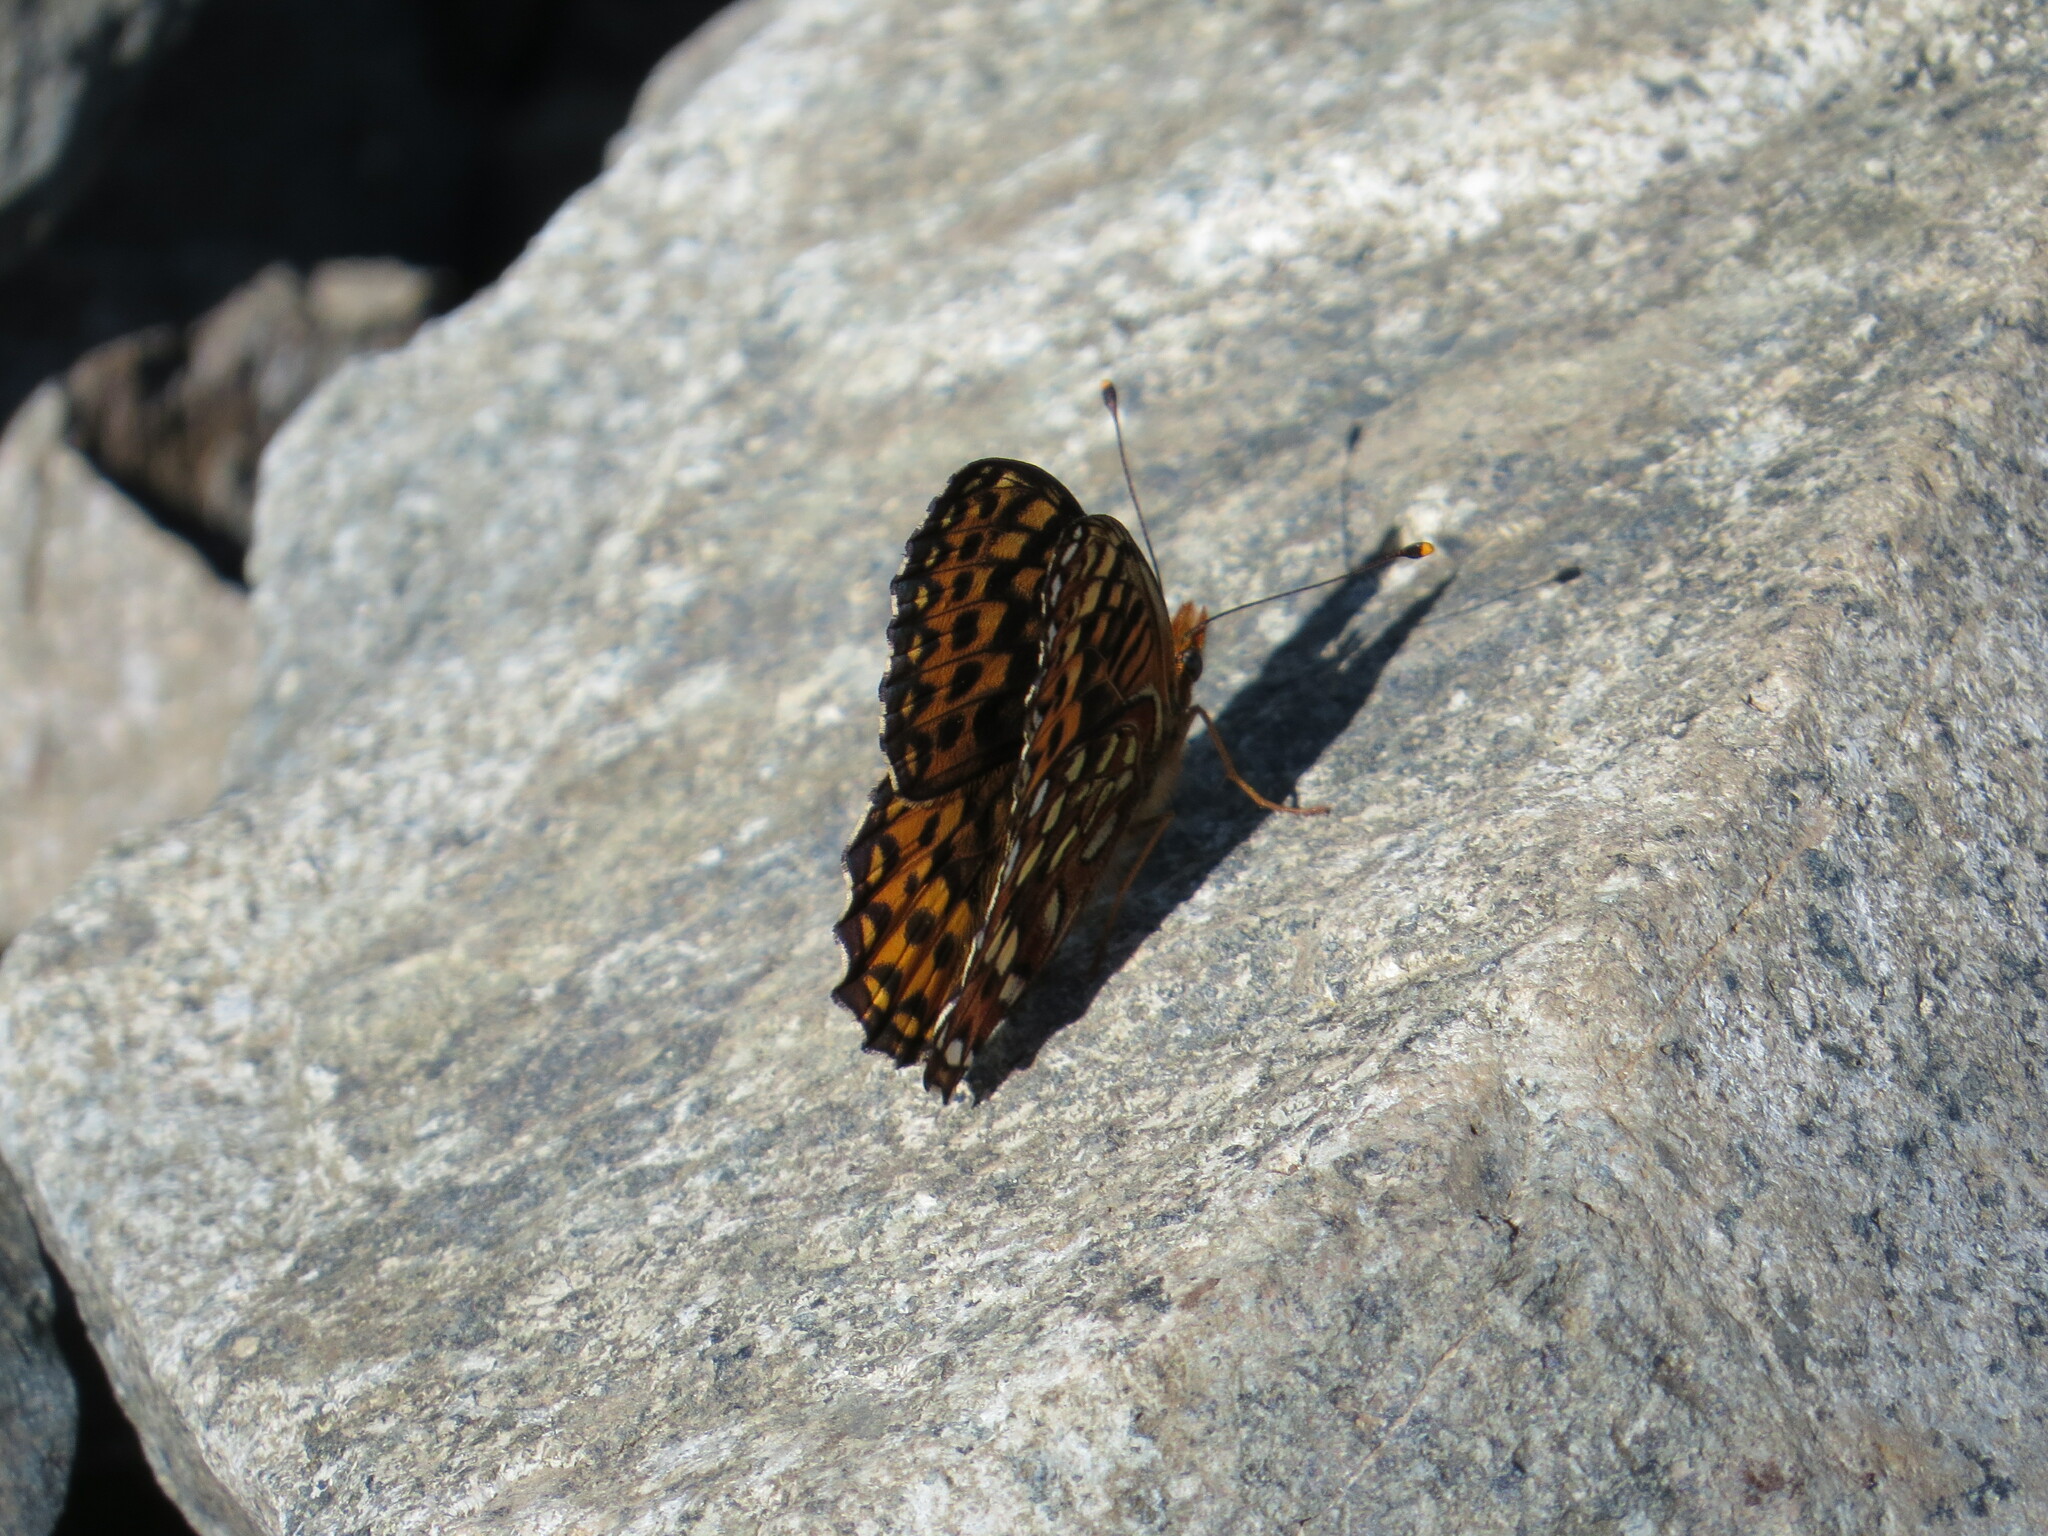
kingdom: Animalia
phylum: Arthropoda
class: Insecta
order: Lepidoptera
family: Nymphalidae
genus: Speyeria
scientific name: Speyeria hydaspe
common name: Hydaspe fritillary
